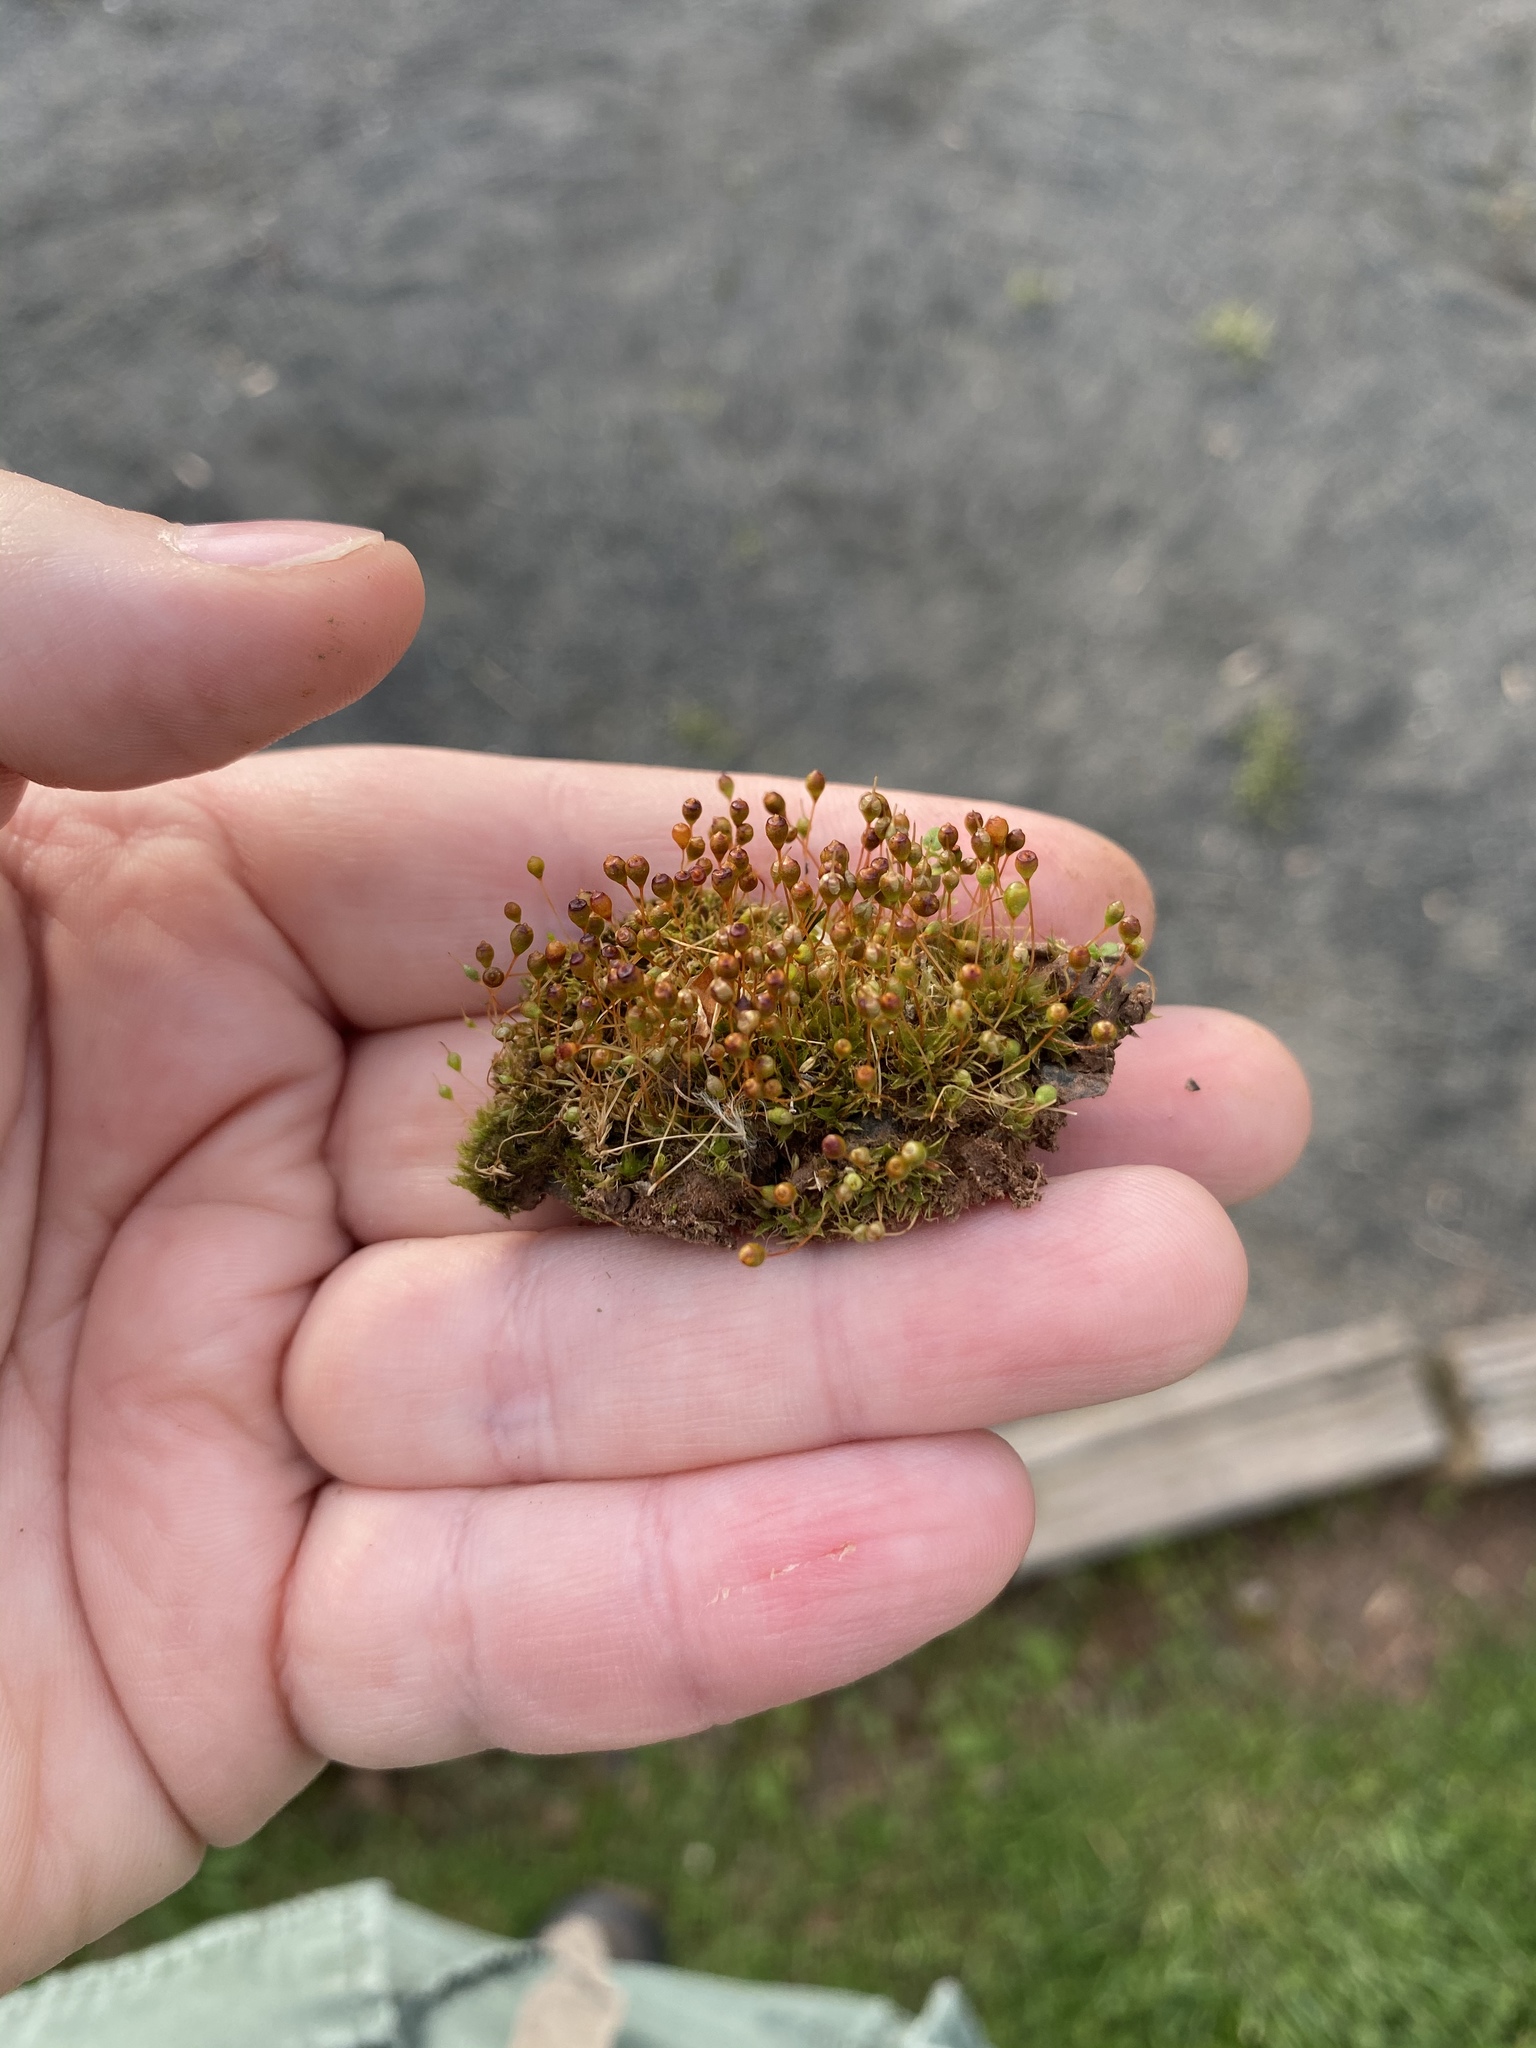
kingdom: Plantae
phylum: Bryophyta
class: Bryopsida
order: Funariales
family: Funariaceae
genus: Physcomitrium
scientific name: Physcomitrium pyriforme
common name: Common bladder-moss
